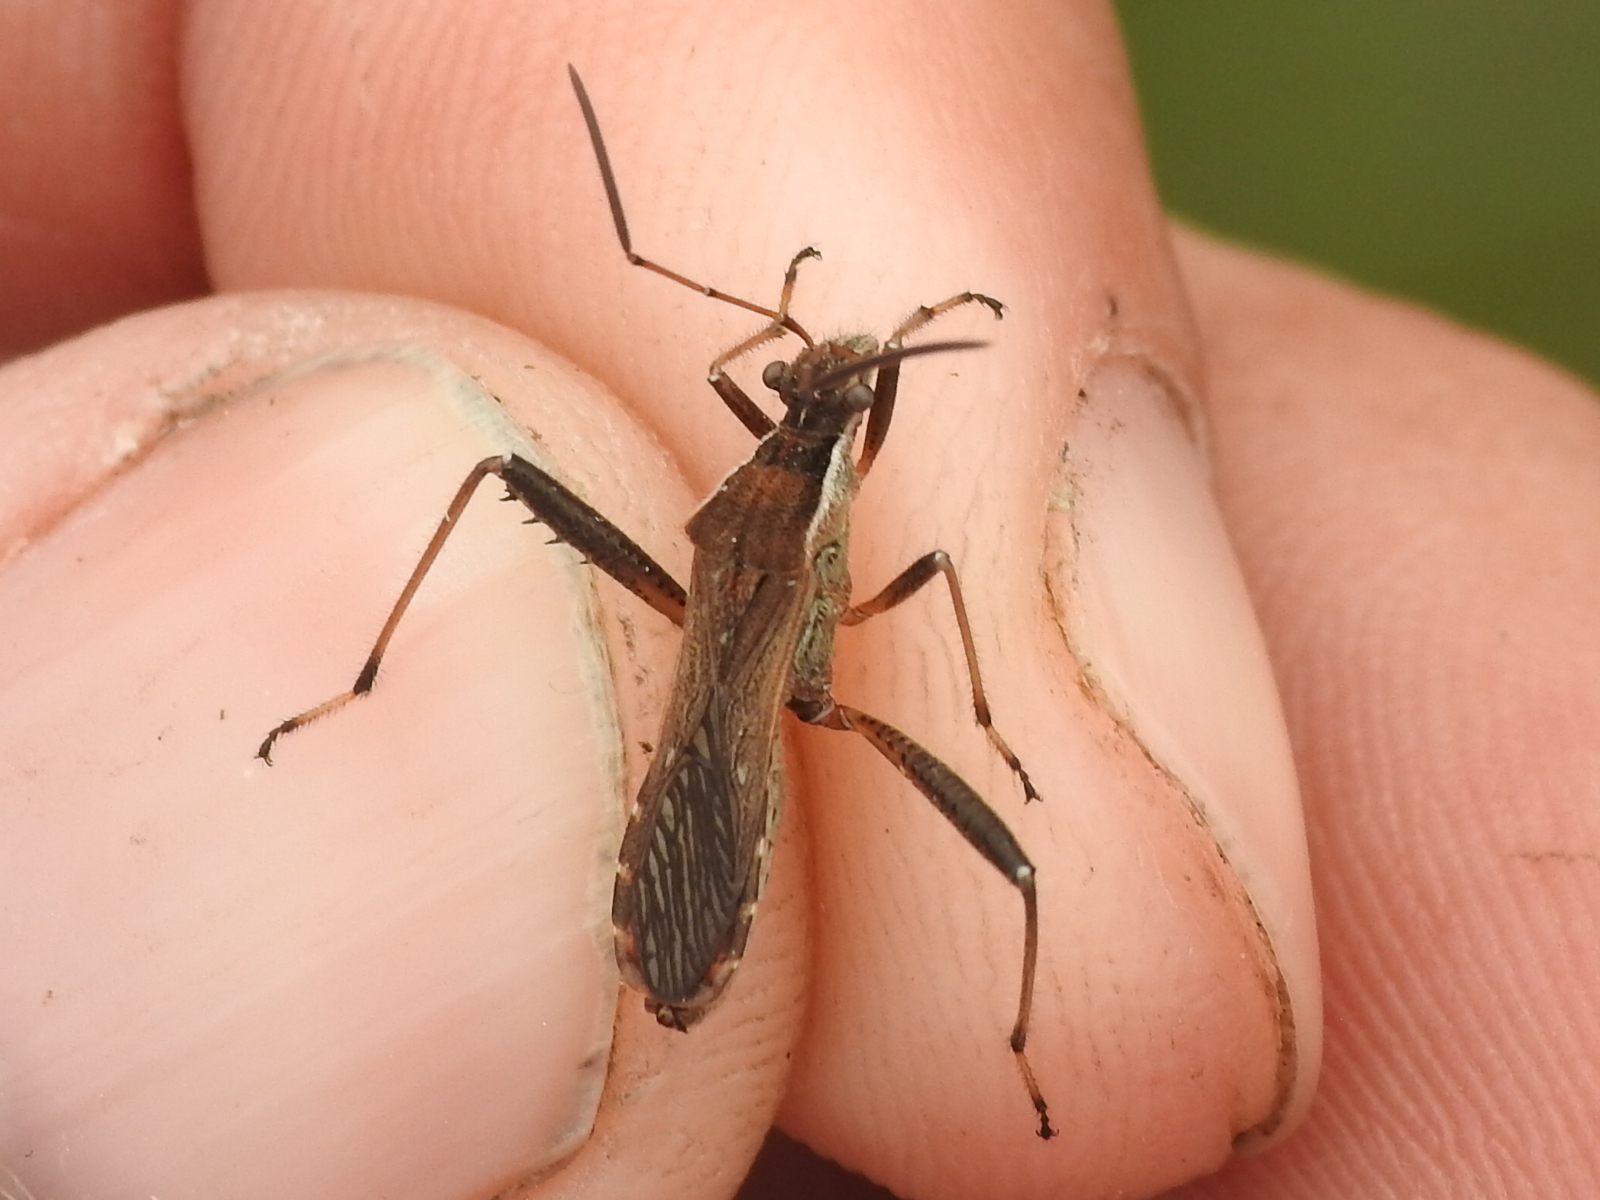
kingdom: Animalia
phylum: Arthropoda
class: Insecta
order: Hemiptera
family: Alydidae
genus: Alydus
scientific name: Alydus pilosulus
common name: Broad-headed bug
